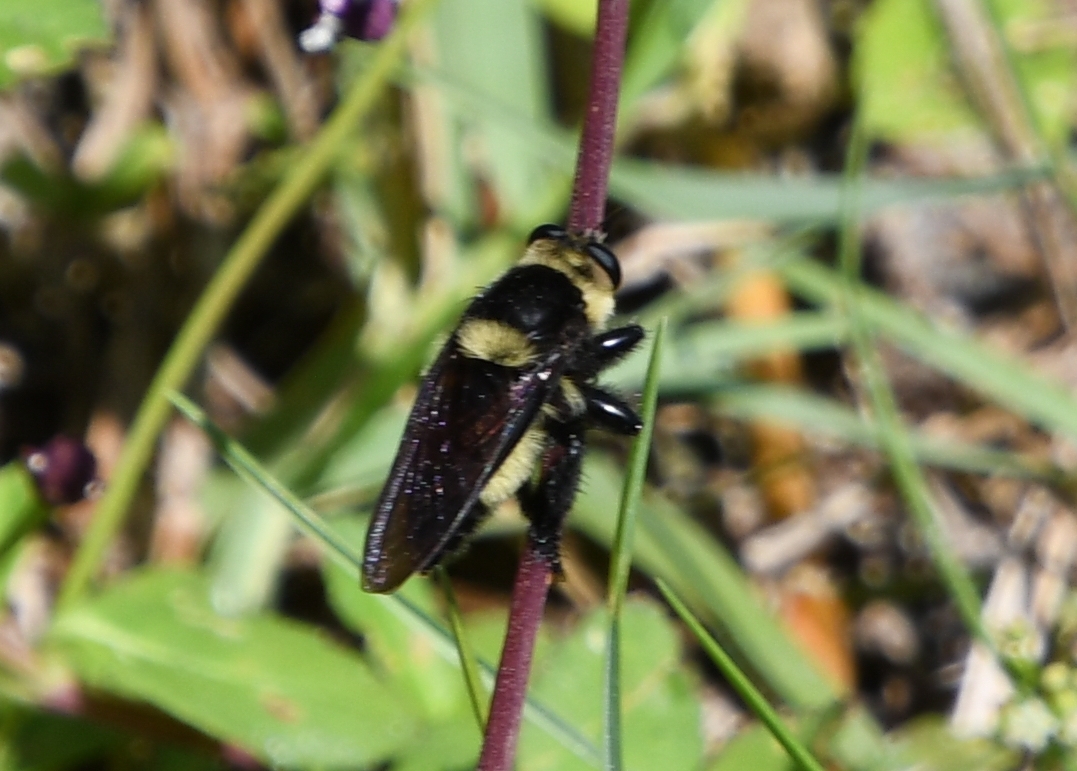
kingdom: Animalia
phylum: Arthropoda
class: Insecta
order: Diptera
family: Asilidae
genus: Mallophora
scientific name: Mallophora orcina
